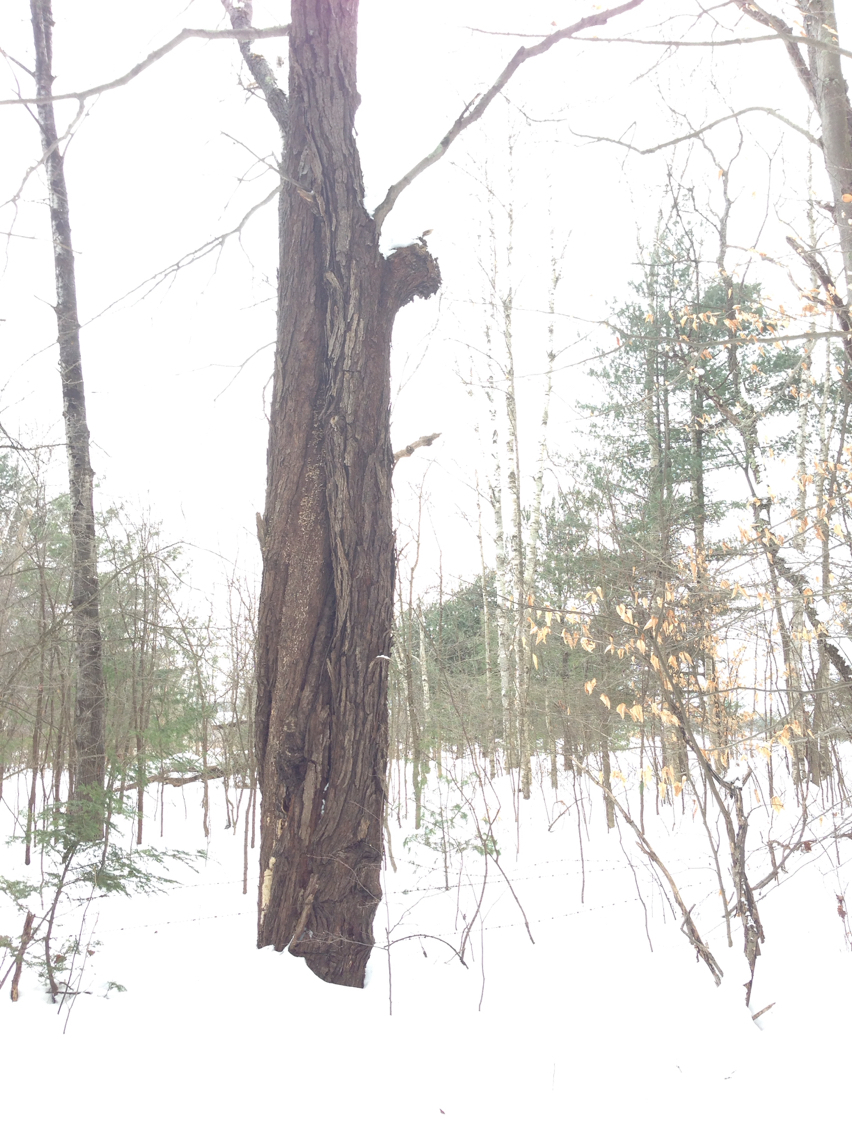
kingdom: Plantae
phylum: Tracheophyta
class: Magnoliopsida
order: Sapindales
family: Sapindaceae
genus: Acer
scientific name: Acer saccharum
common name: Sugar maple
